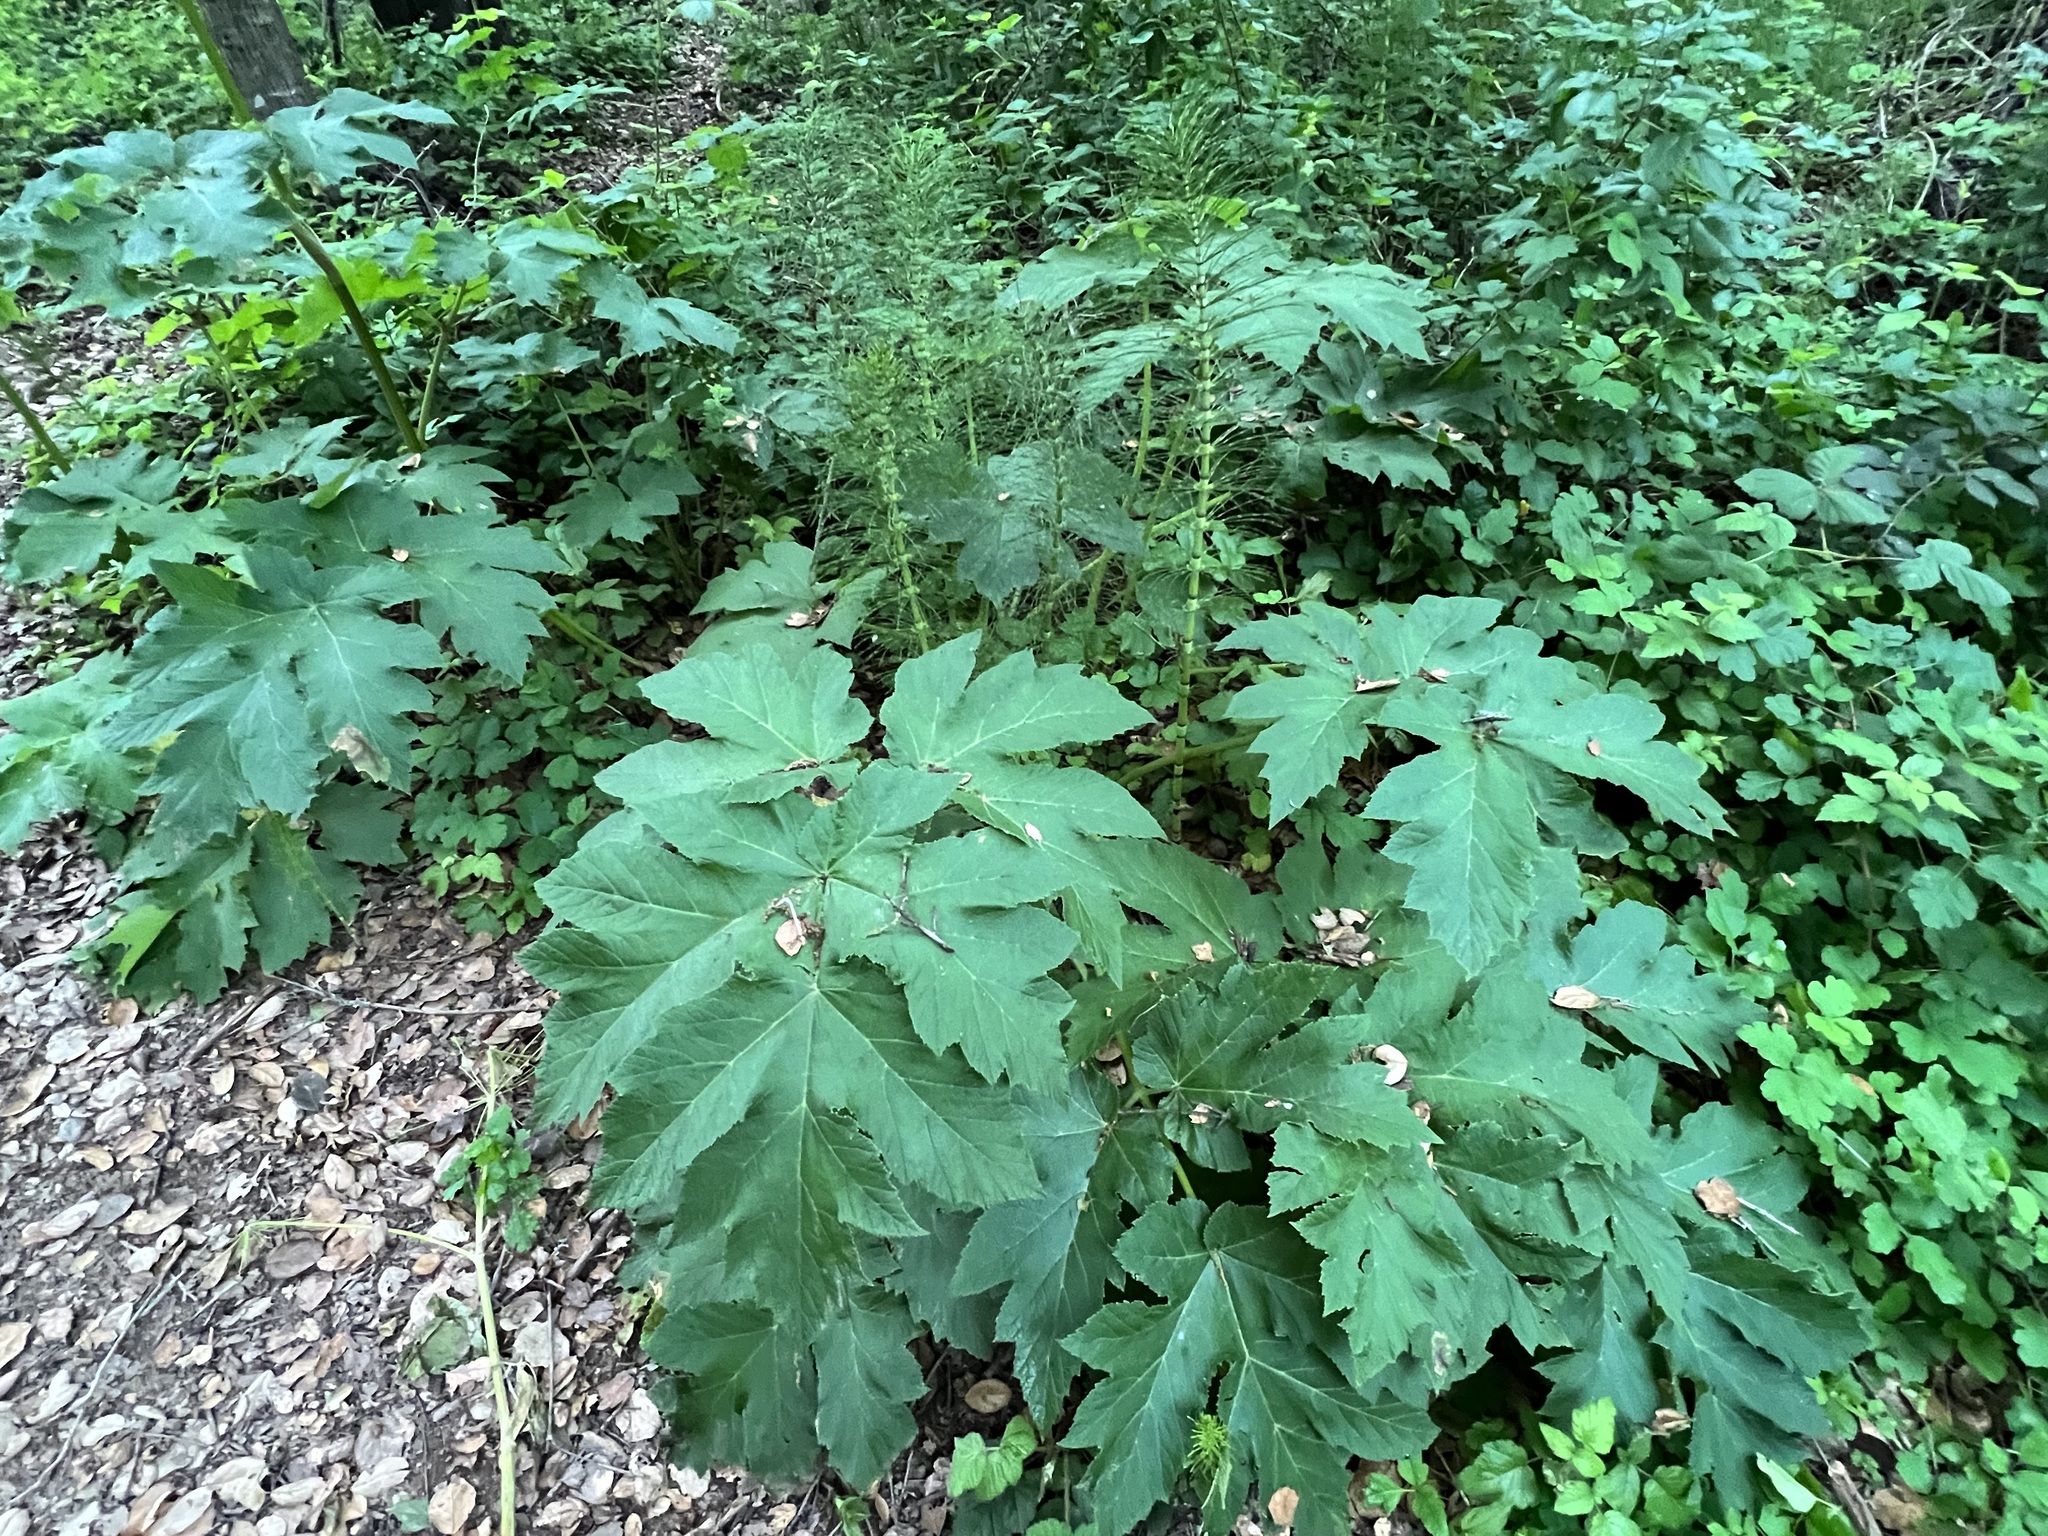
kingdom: Plantae
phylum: Tracheophyta
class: Magnoliopsida
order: Apiales
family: Apiaceae
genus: Heracleum
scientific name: Heracleum maximum
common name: American cow parsnip
